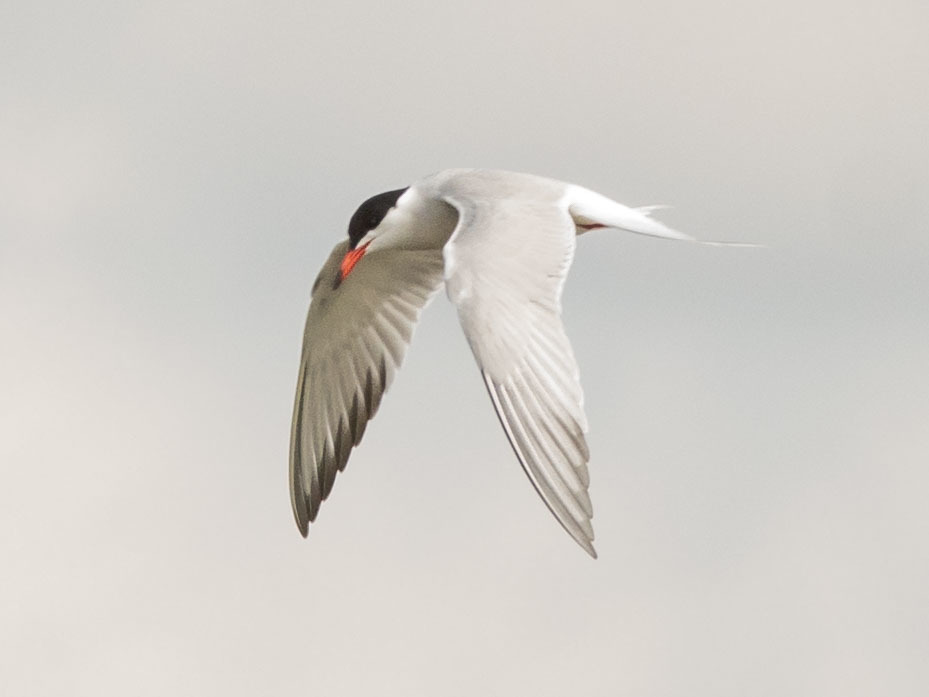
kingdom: Animalia
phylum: Chordata
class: Aves
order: Charadriiformes
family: Laridae
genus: Sterna
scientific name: Sterna hirundo
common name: Common tern
